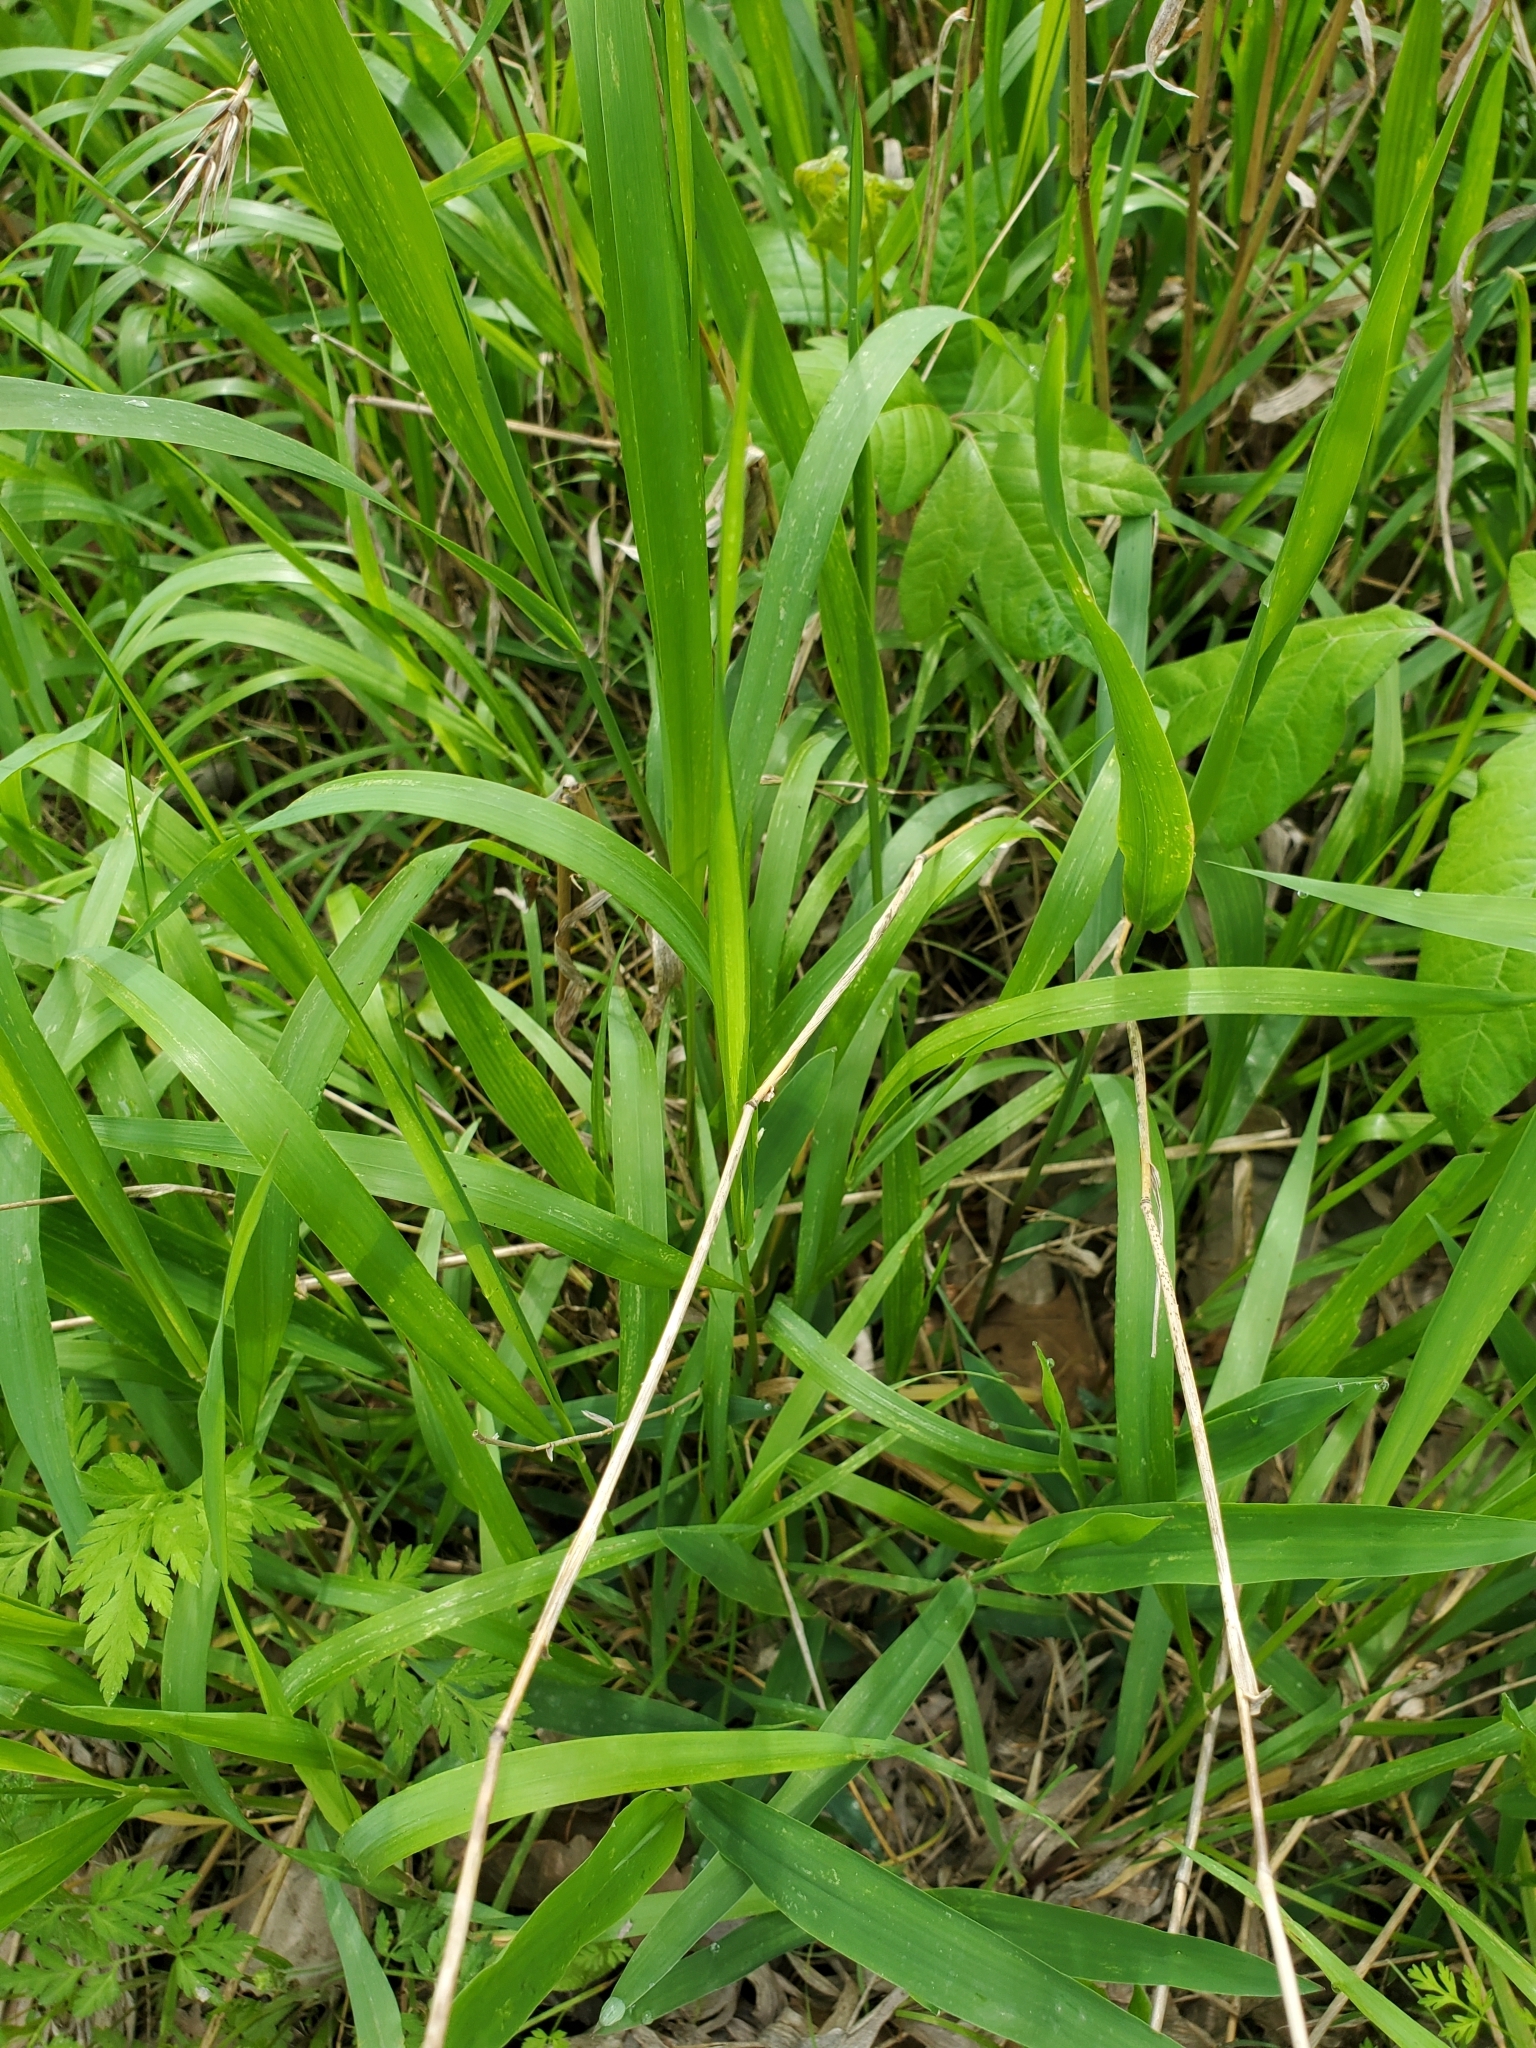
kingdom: Plantae
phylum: Tracheophyta
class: Liliopsida
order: Poales
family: Poaceae
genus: Elymus
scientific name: Elymus virginicus
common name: Common eastern wildrye
